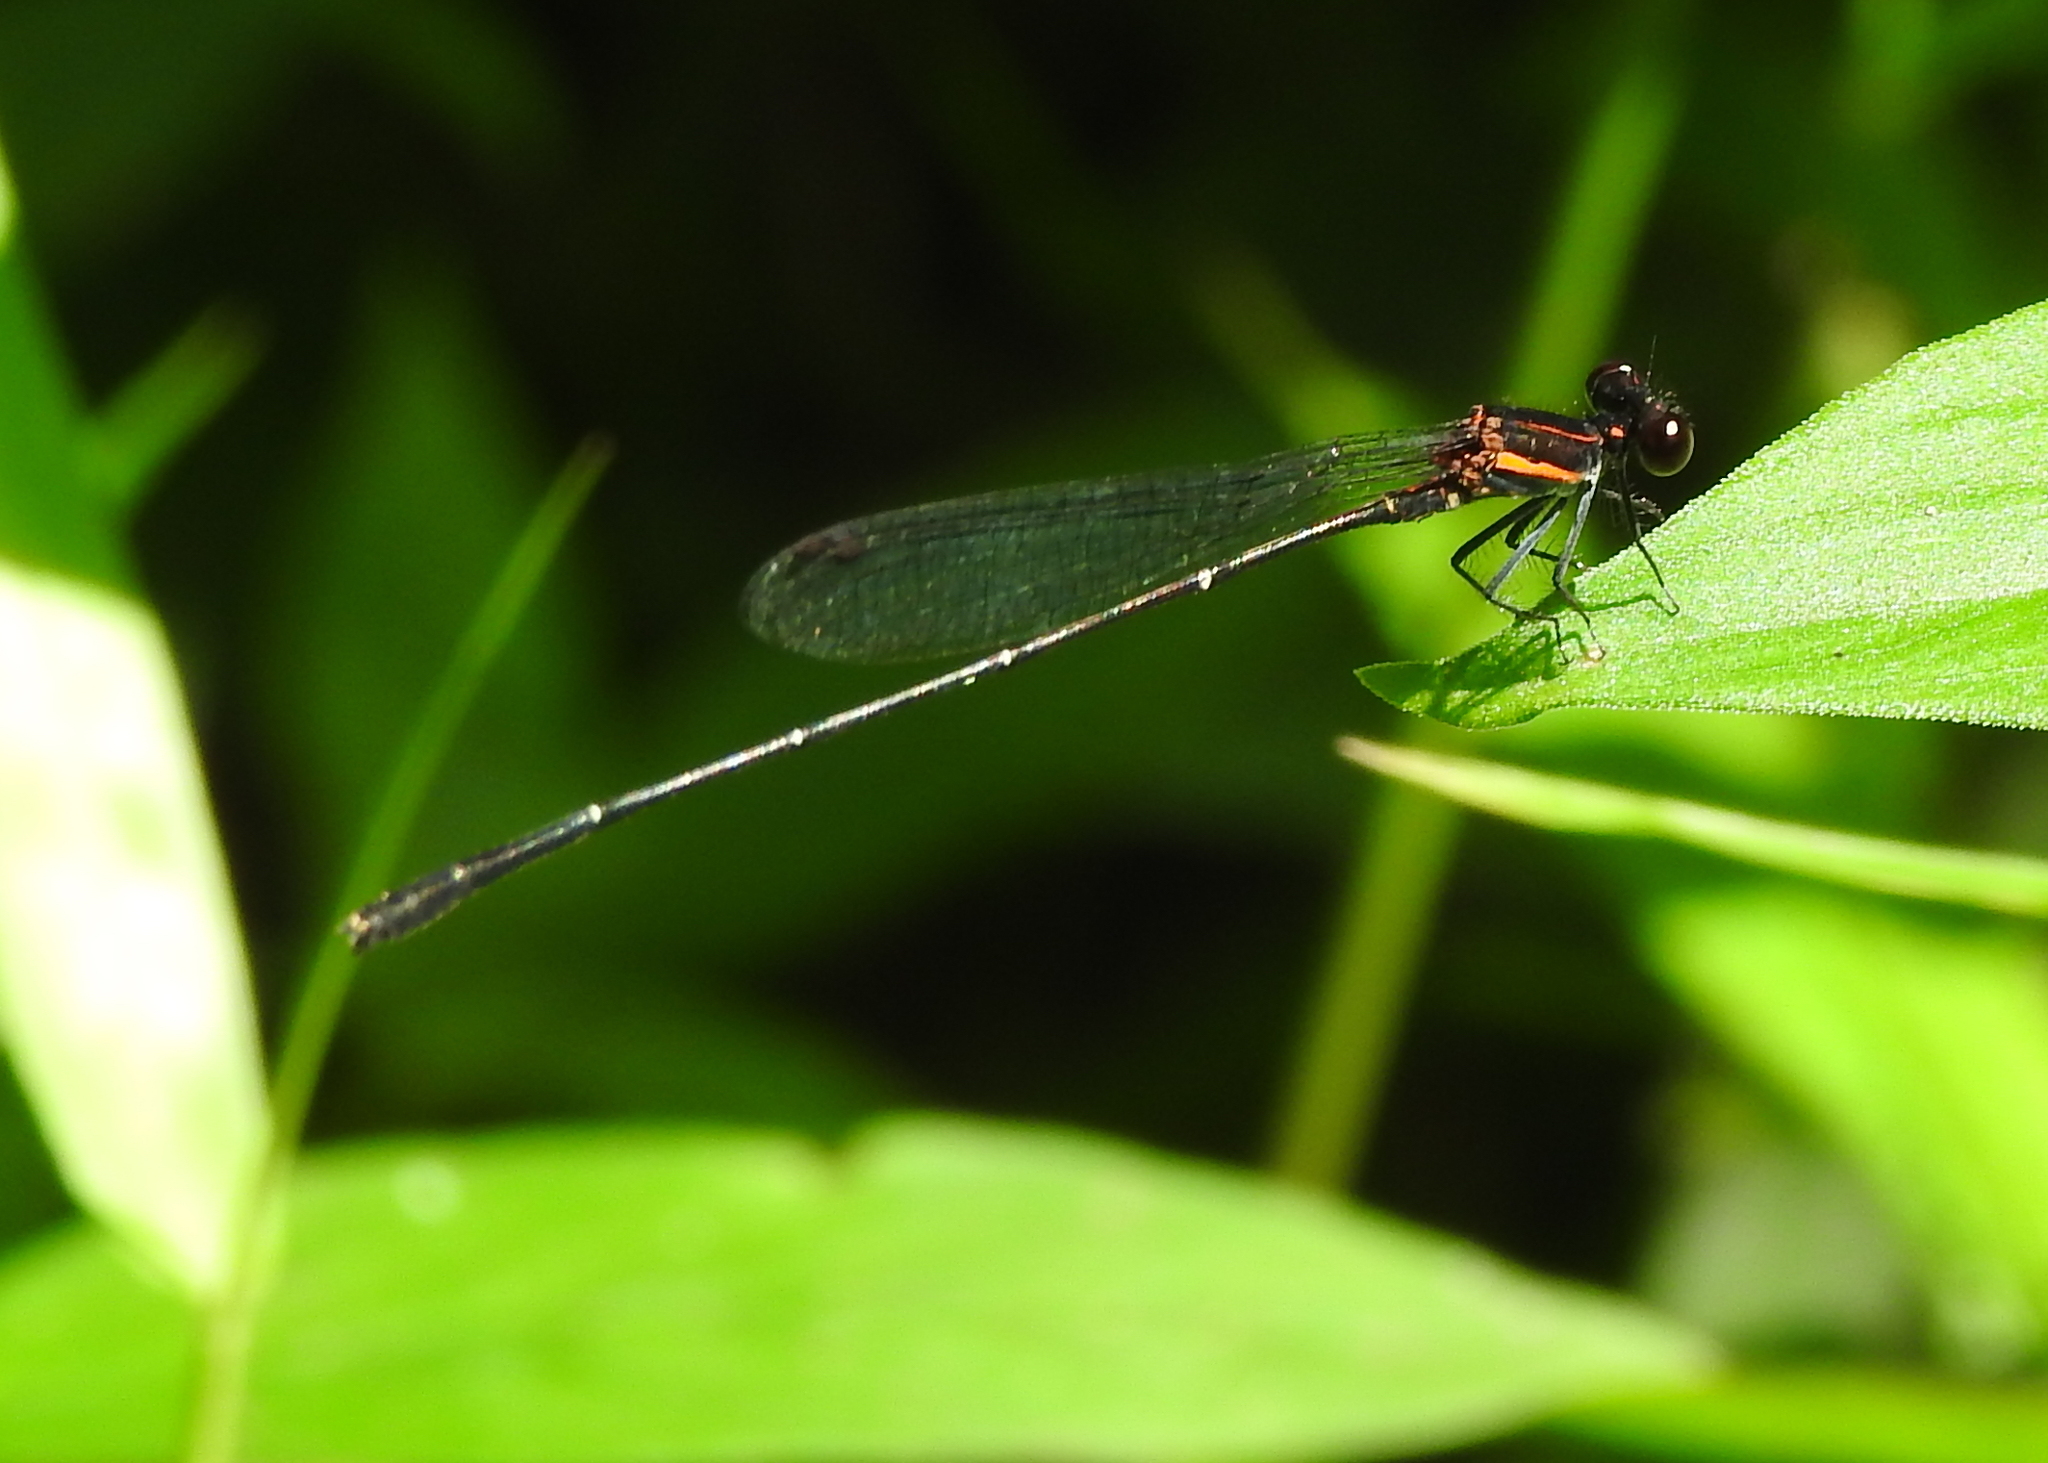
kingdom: Animalia
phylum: Arthropoda
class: Insecta
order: Odonata
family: Platycnemididae
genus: Prodasineura
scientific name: Prodasineura verticalis
